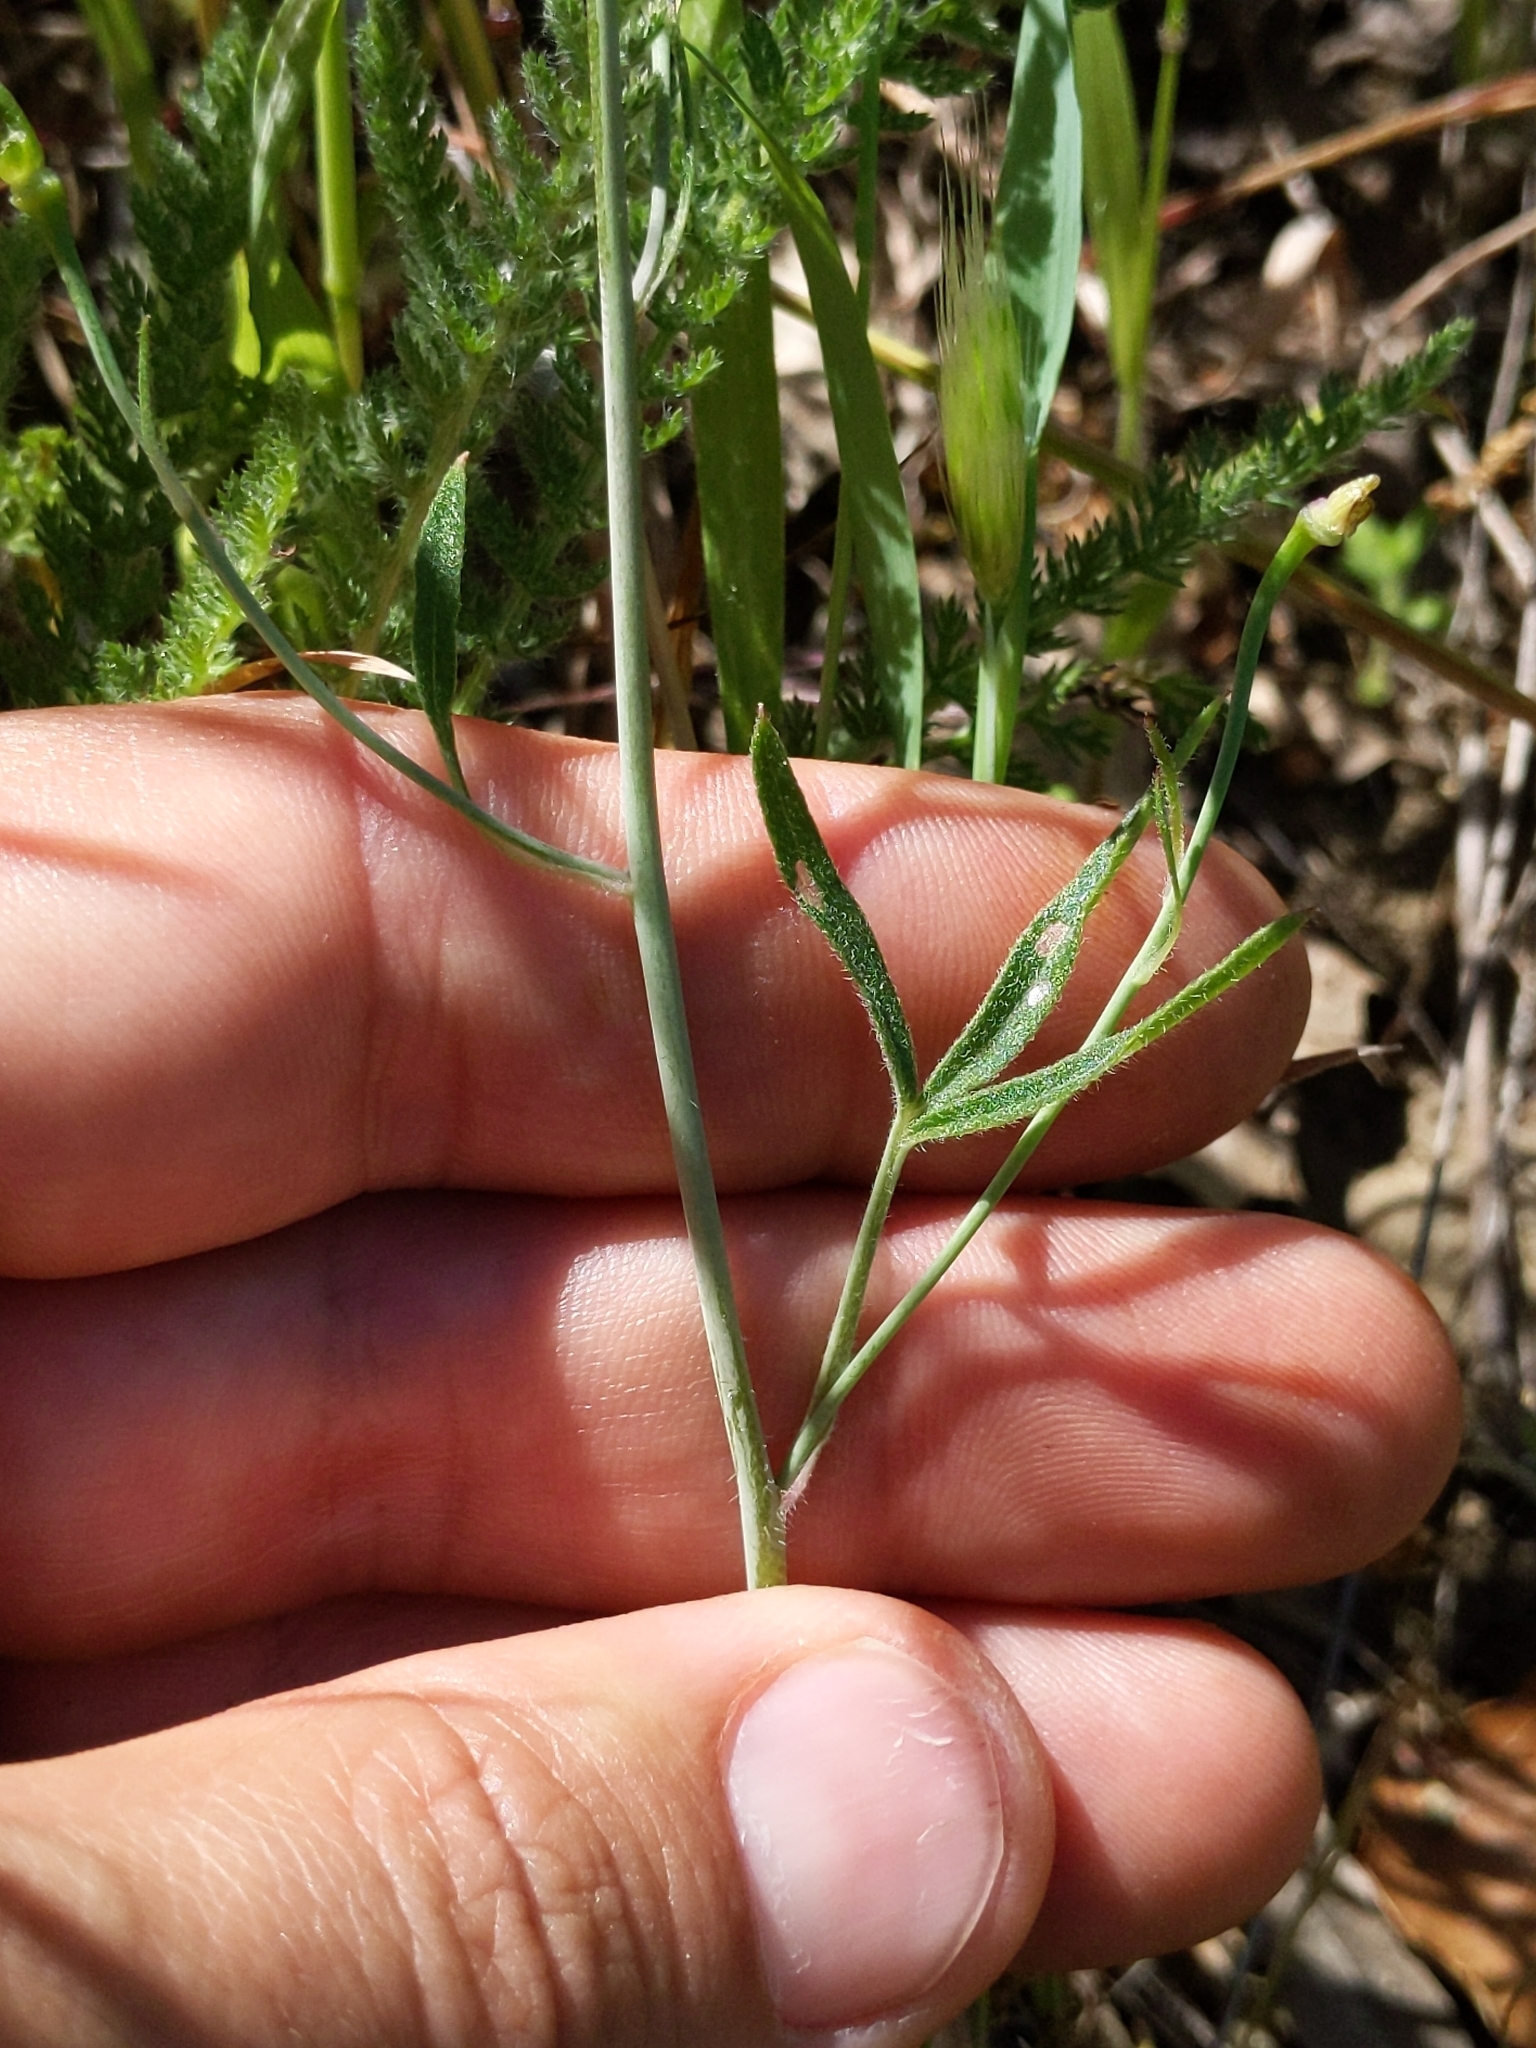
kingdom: Plantae
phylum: Tracheophyta
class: Magnoliopsida
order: Ranunculales
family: Ranunculaceae
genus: Delphinium
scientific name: Delphinium patens
